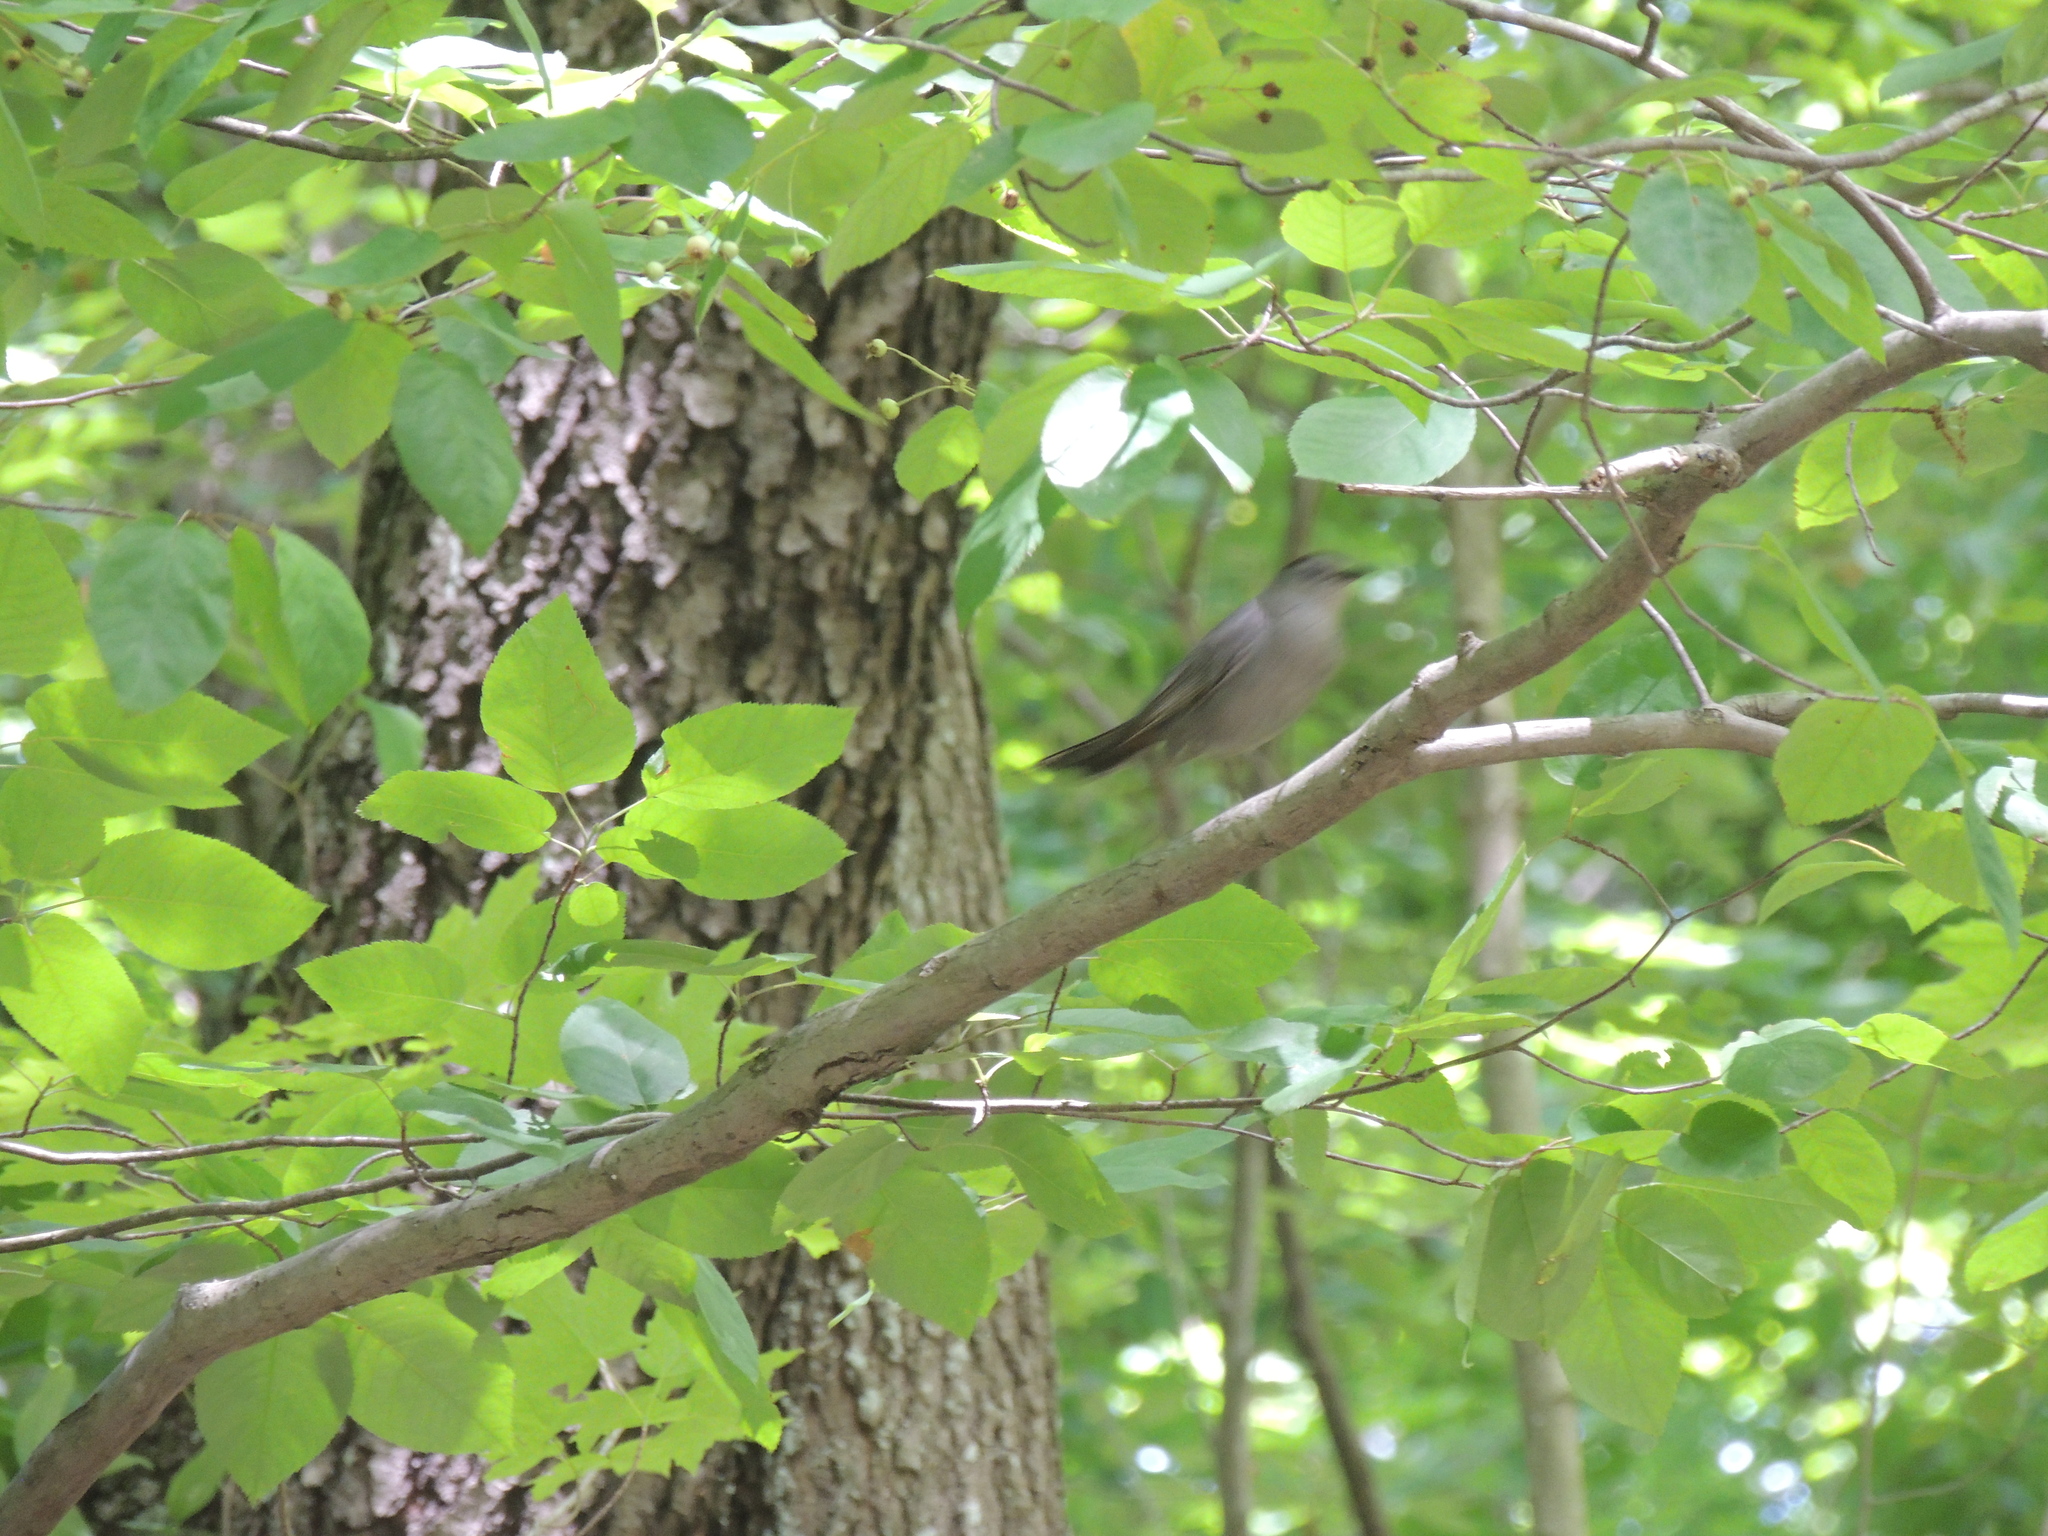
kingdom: Animalia
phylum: Chordata
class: Aves
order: Passeriformes
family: Mimidae
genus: Dumetella
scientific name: Dumetella carolinensis
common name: Gray catbird
